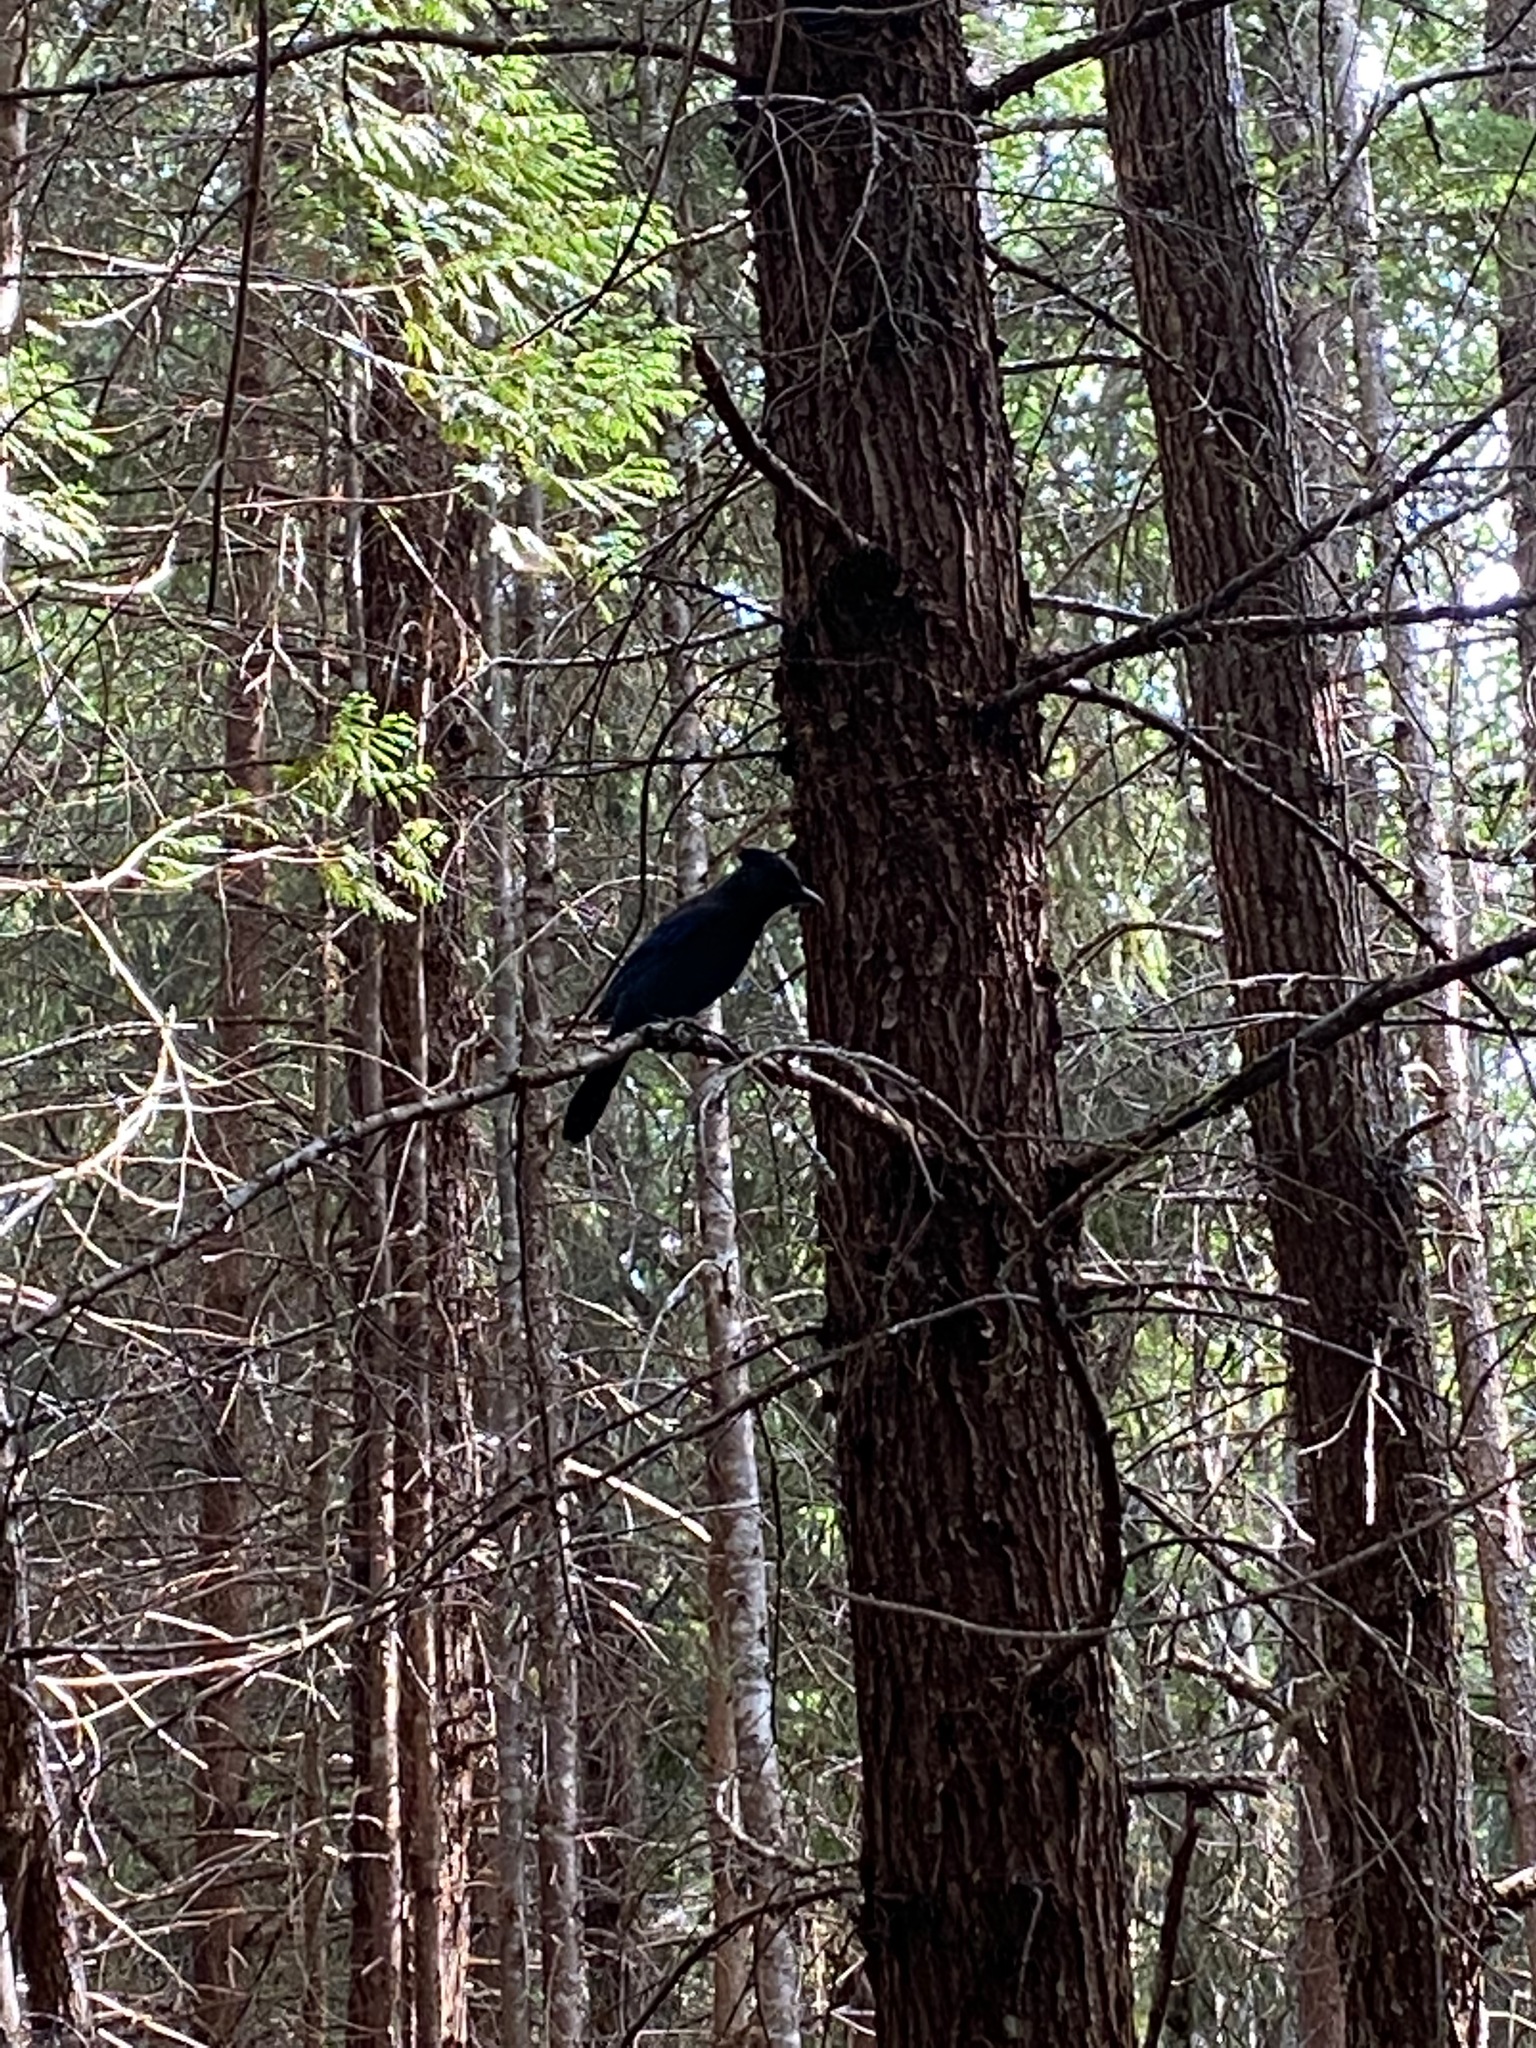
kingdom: Animalia
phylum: Chordata
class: Aves
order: Passeriformes
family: Corvidae
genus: Cyanocitta
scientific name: Cyanocitta stelleri
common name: Steller's jay
